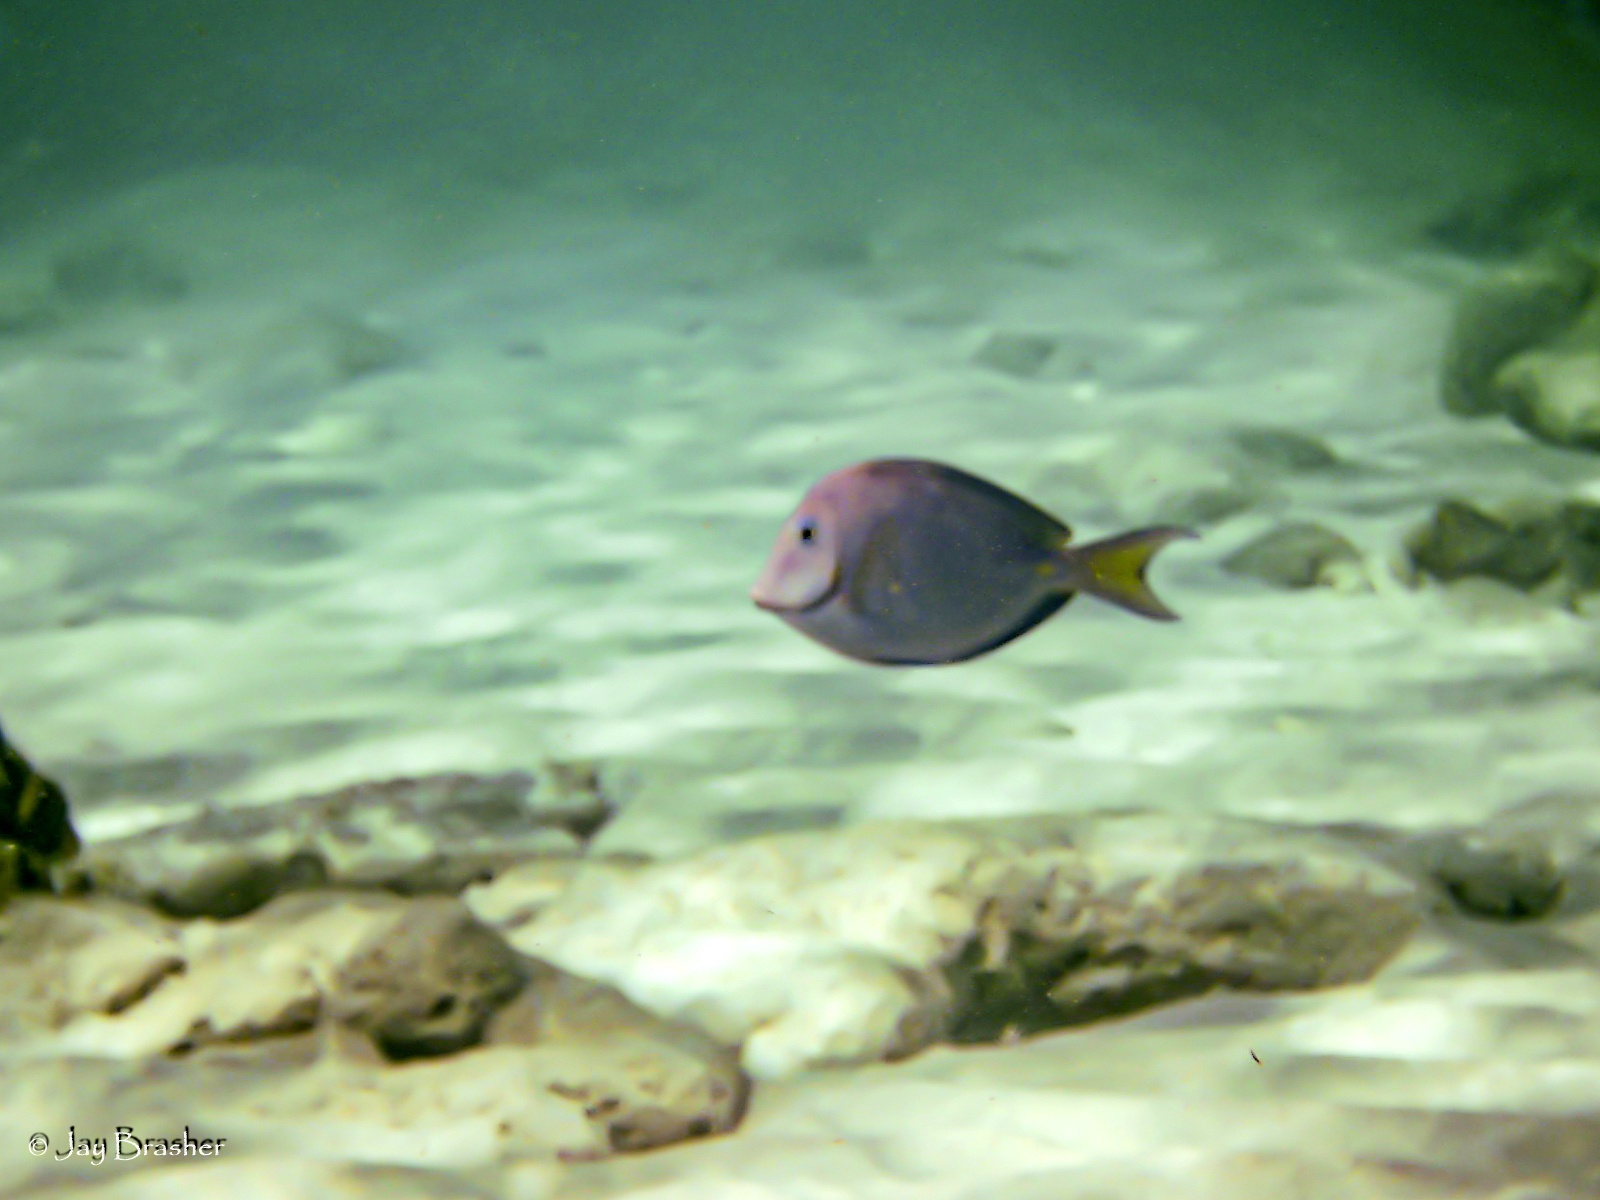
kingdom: Animalia
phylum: Chordata
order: Perciformes
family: Acanthuridae
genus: Acanthurus
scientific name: Acanthurus bahianus
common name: Ocean surgeon
